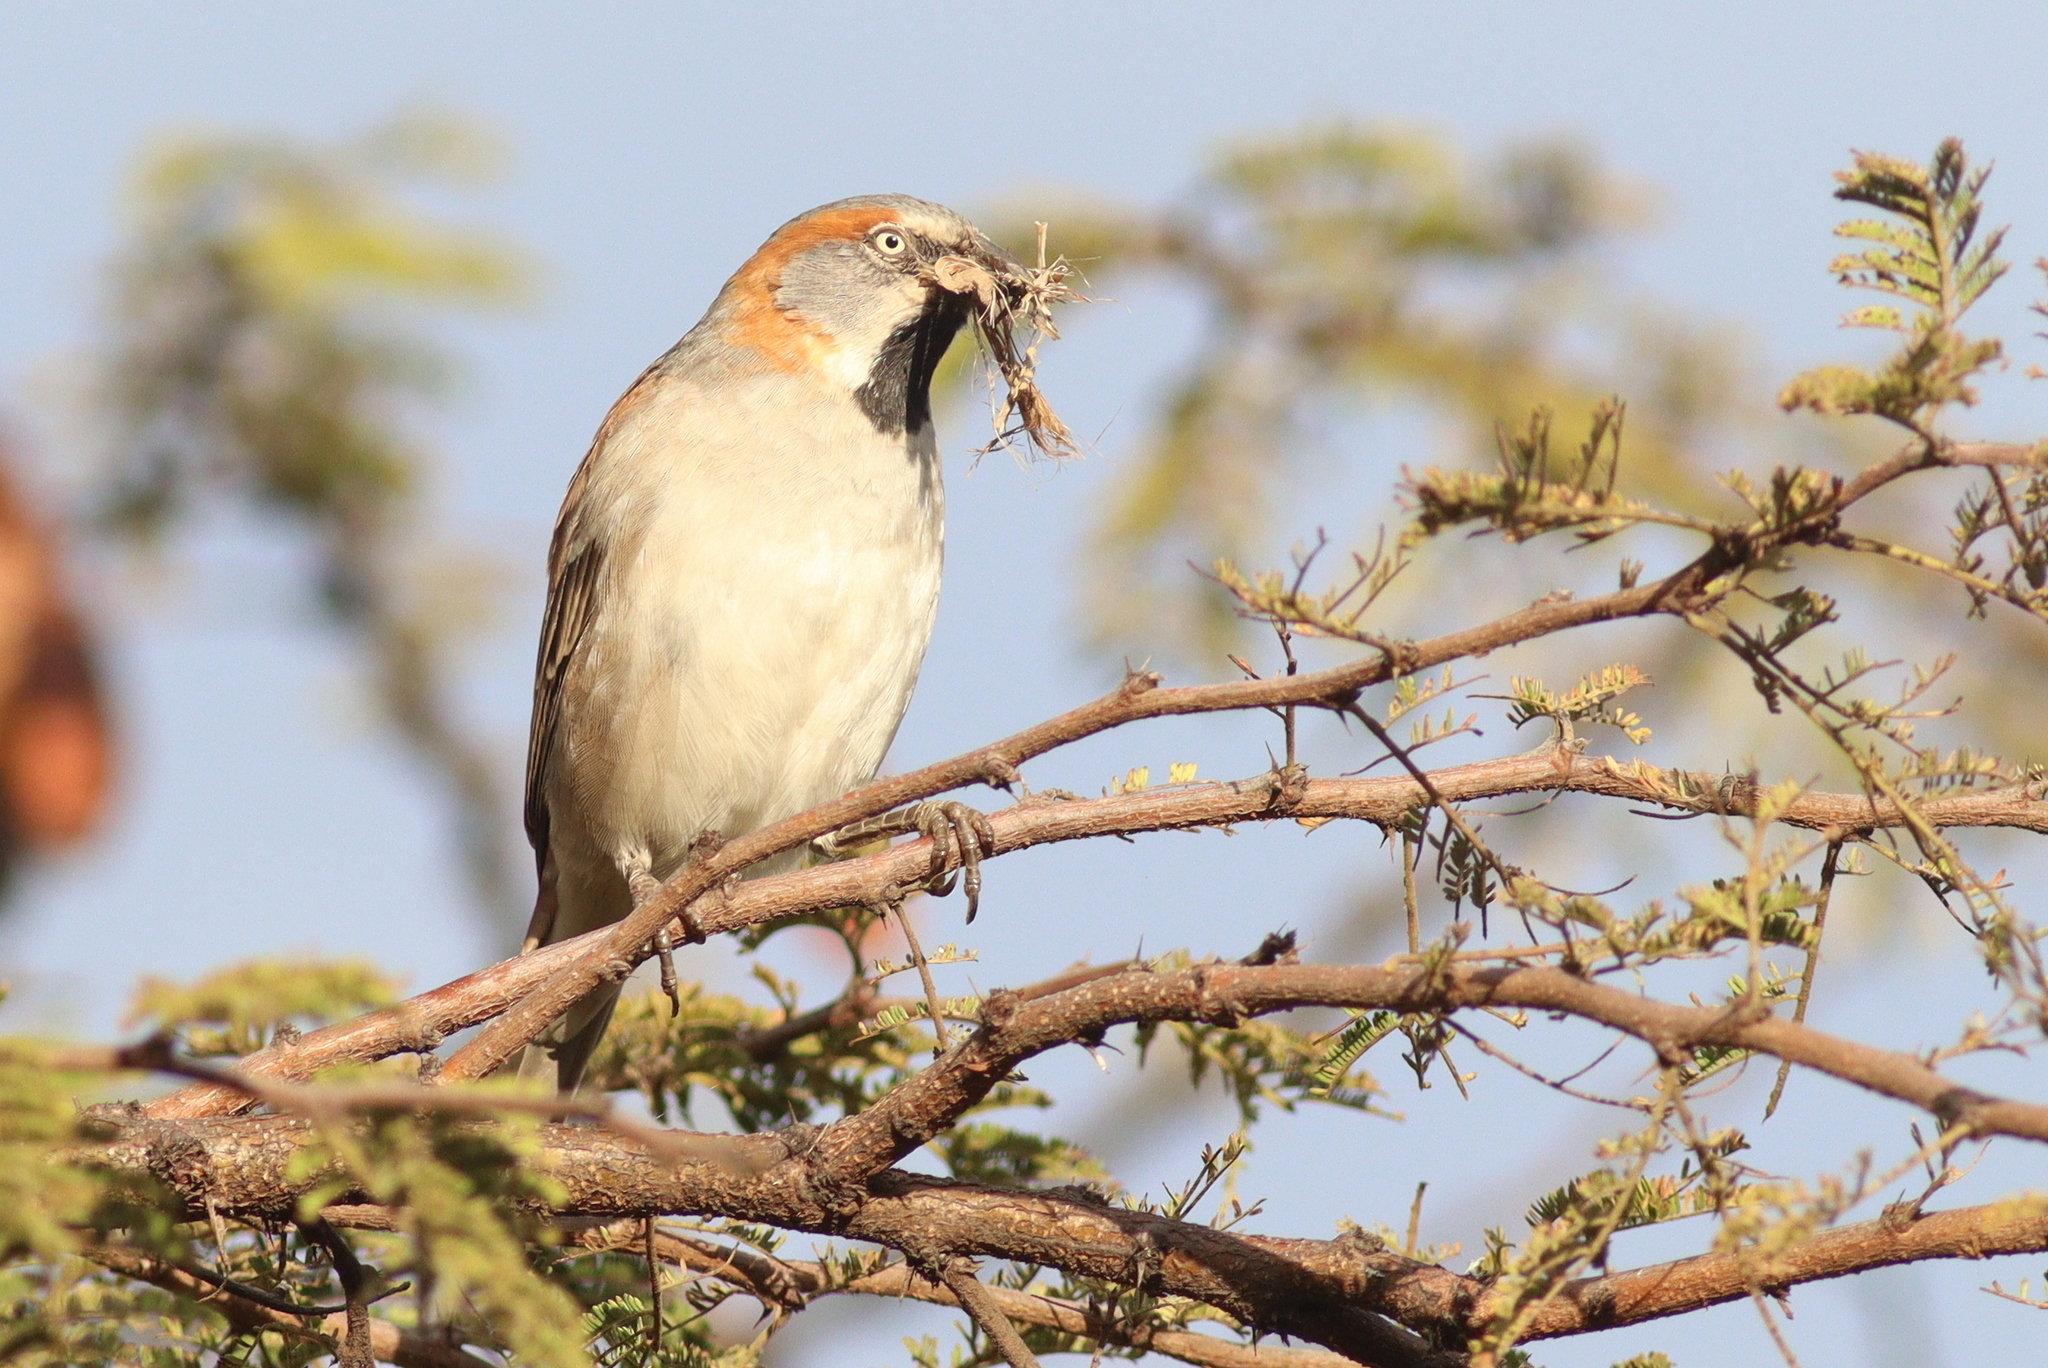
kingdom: Animalia
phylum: Chordata
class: Aves
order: Passeriformes
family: Passeridae
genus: Passer
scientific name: Passer rufocinctus
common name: Kenya sparrow
